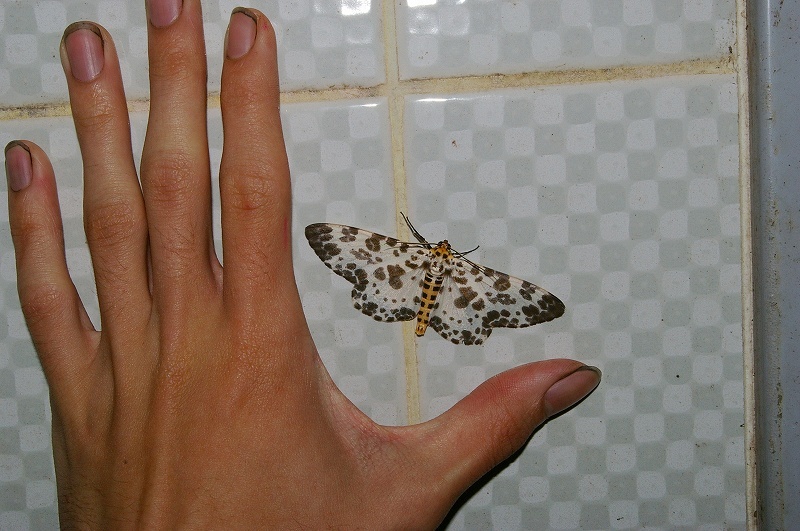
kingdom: Animalia
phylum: Arthropoda
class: Insecta
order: Lepidoptera
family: Geometridae
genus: Parapercnia
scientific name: Parapercnia giraffata
